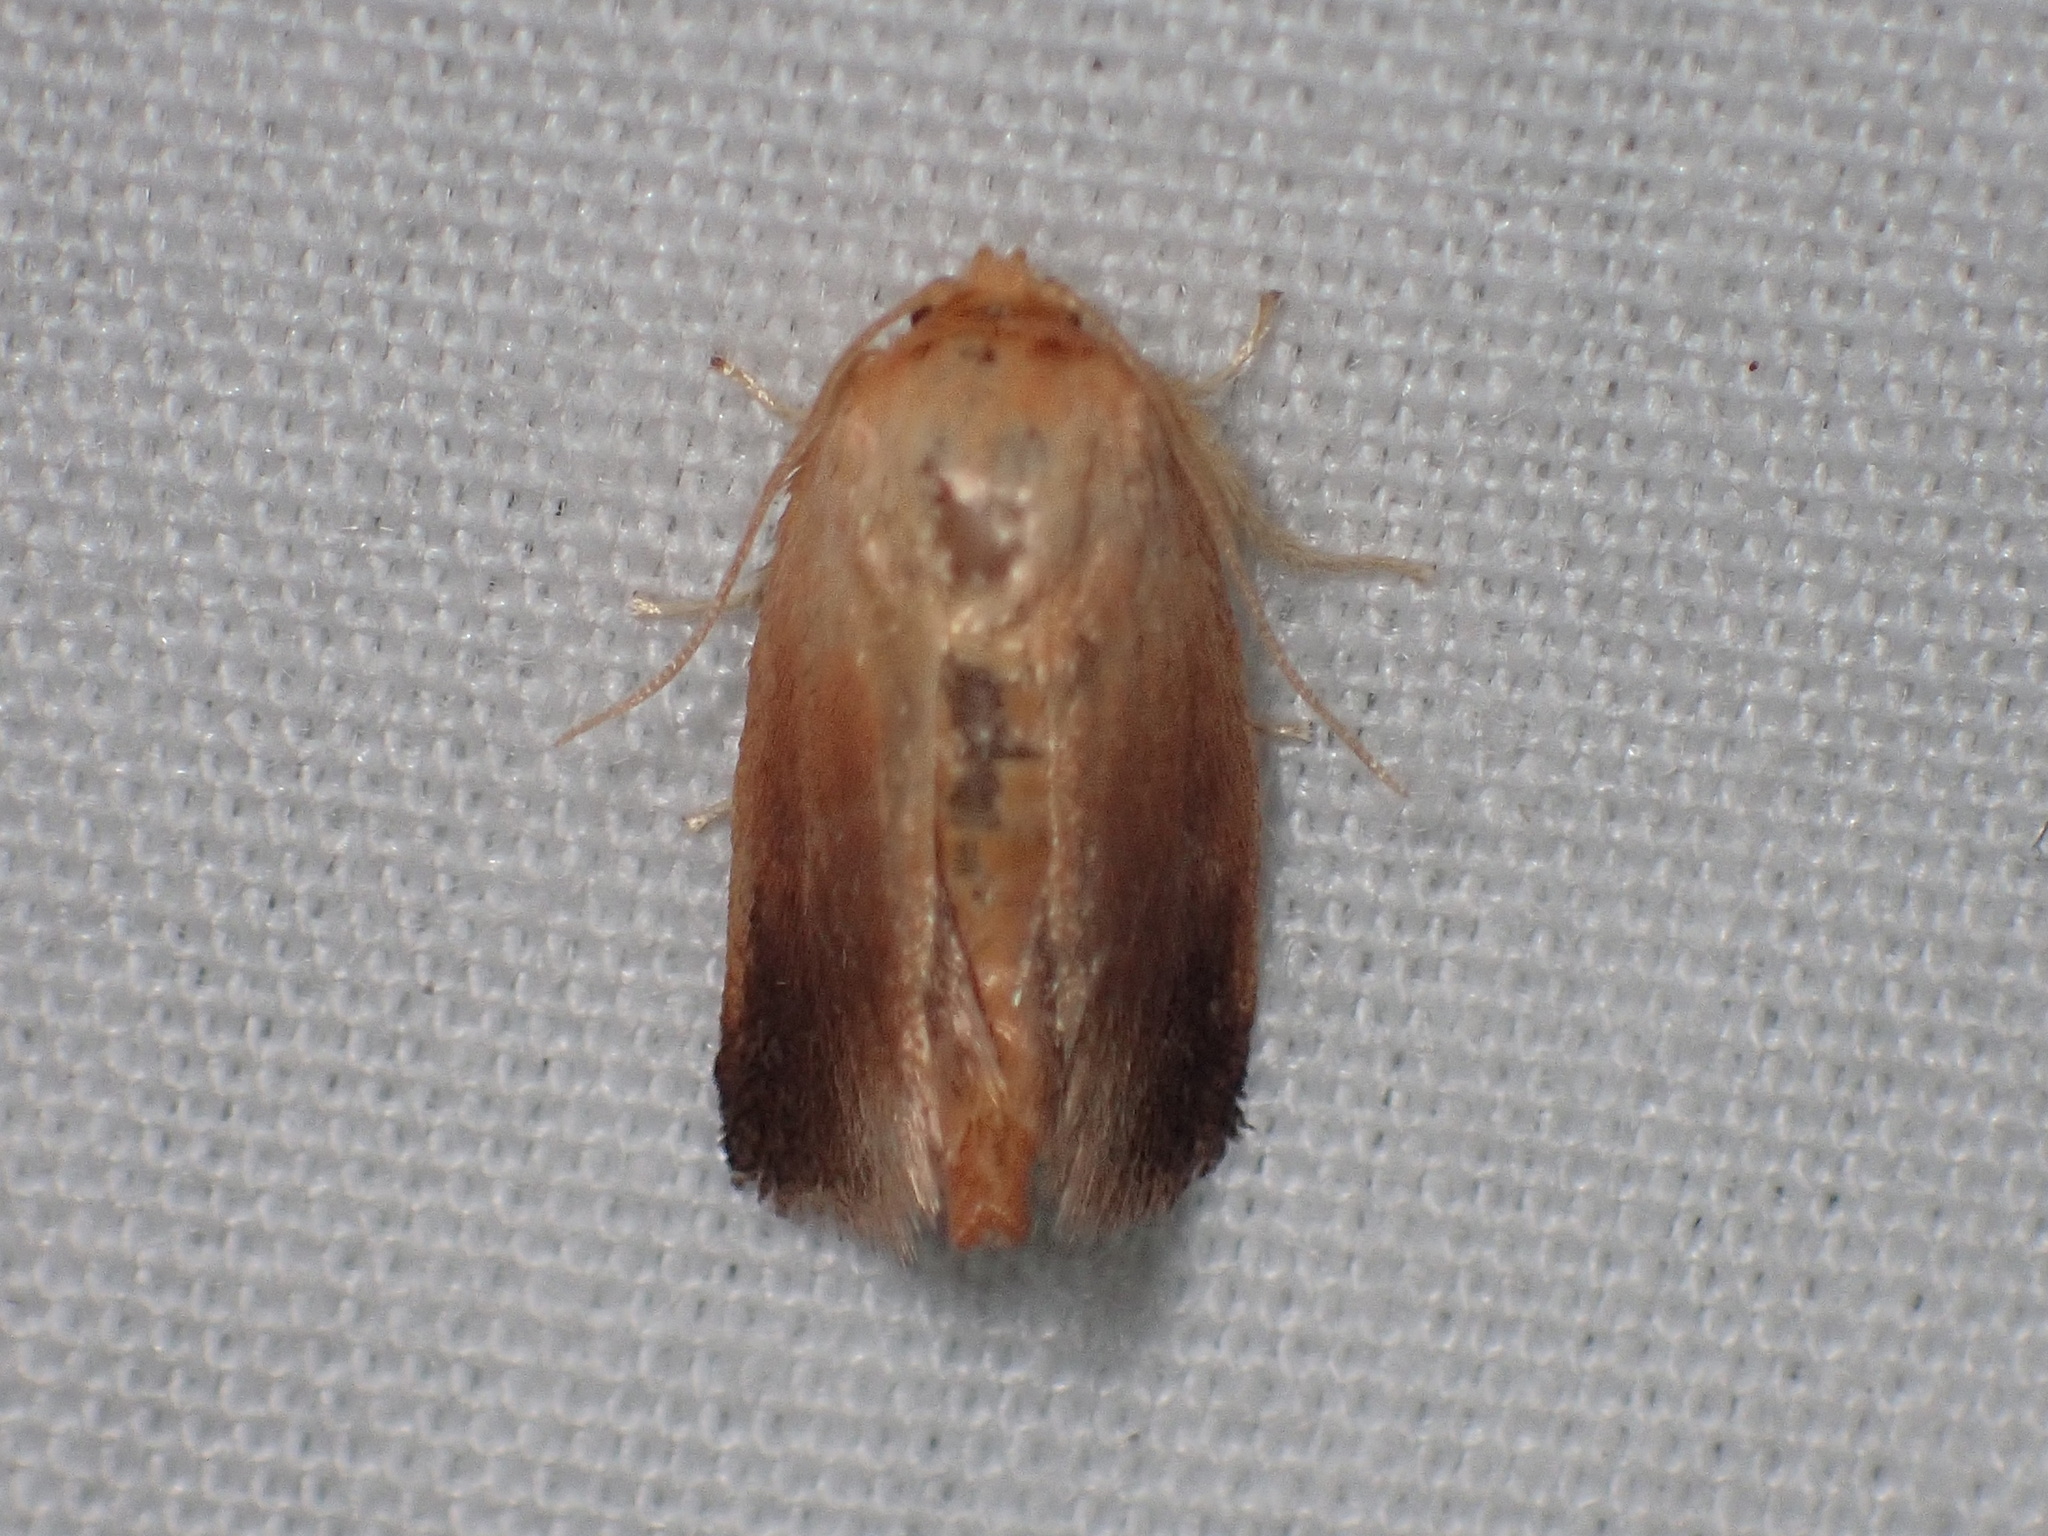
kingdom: Animalia
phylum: Arthropoda
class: Insecta
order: Lepidoptera
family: Limacodidae
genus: Tortricidia
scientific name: Tortricidia testacea
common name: Early button slug moth
